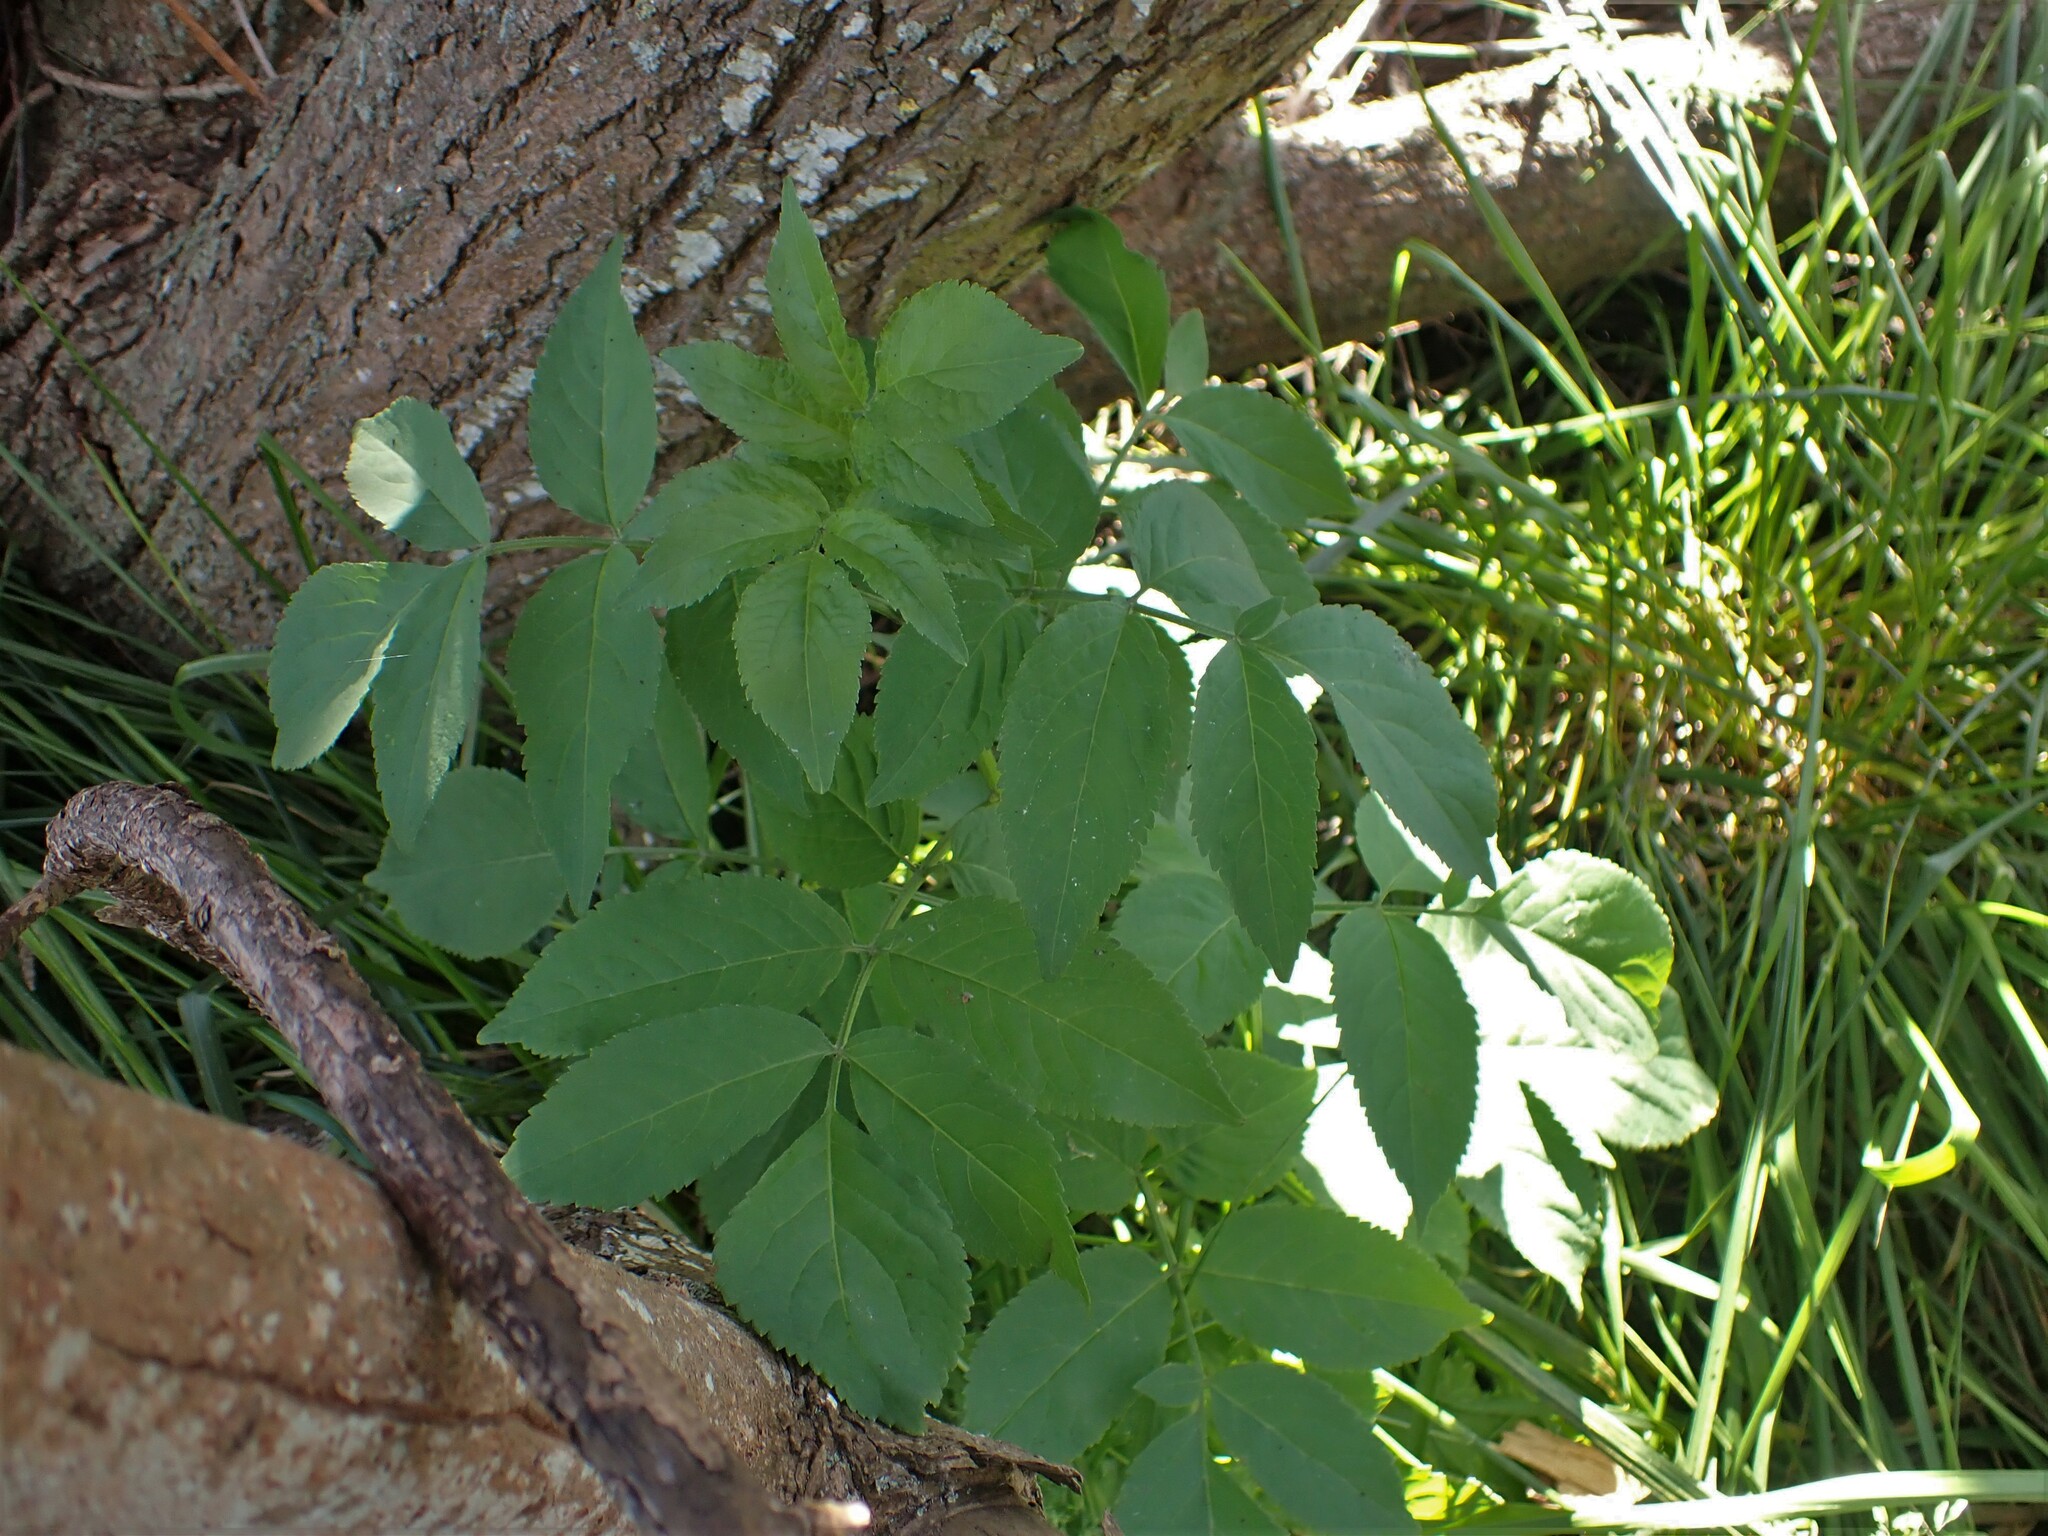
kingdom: Plantae
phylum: Tracheophyta
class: Magnoliopsida
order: Dipsacales
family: Viburnaceae
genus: Sambucus
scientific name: Sambucus nigra
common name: Elder
